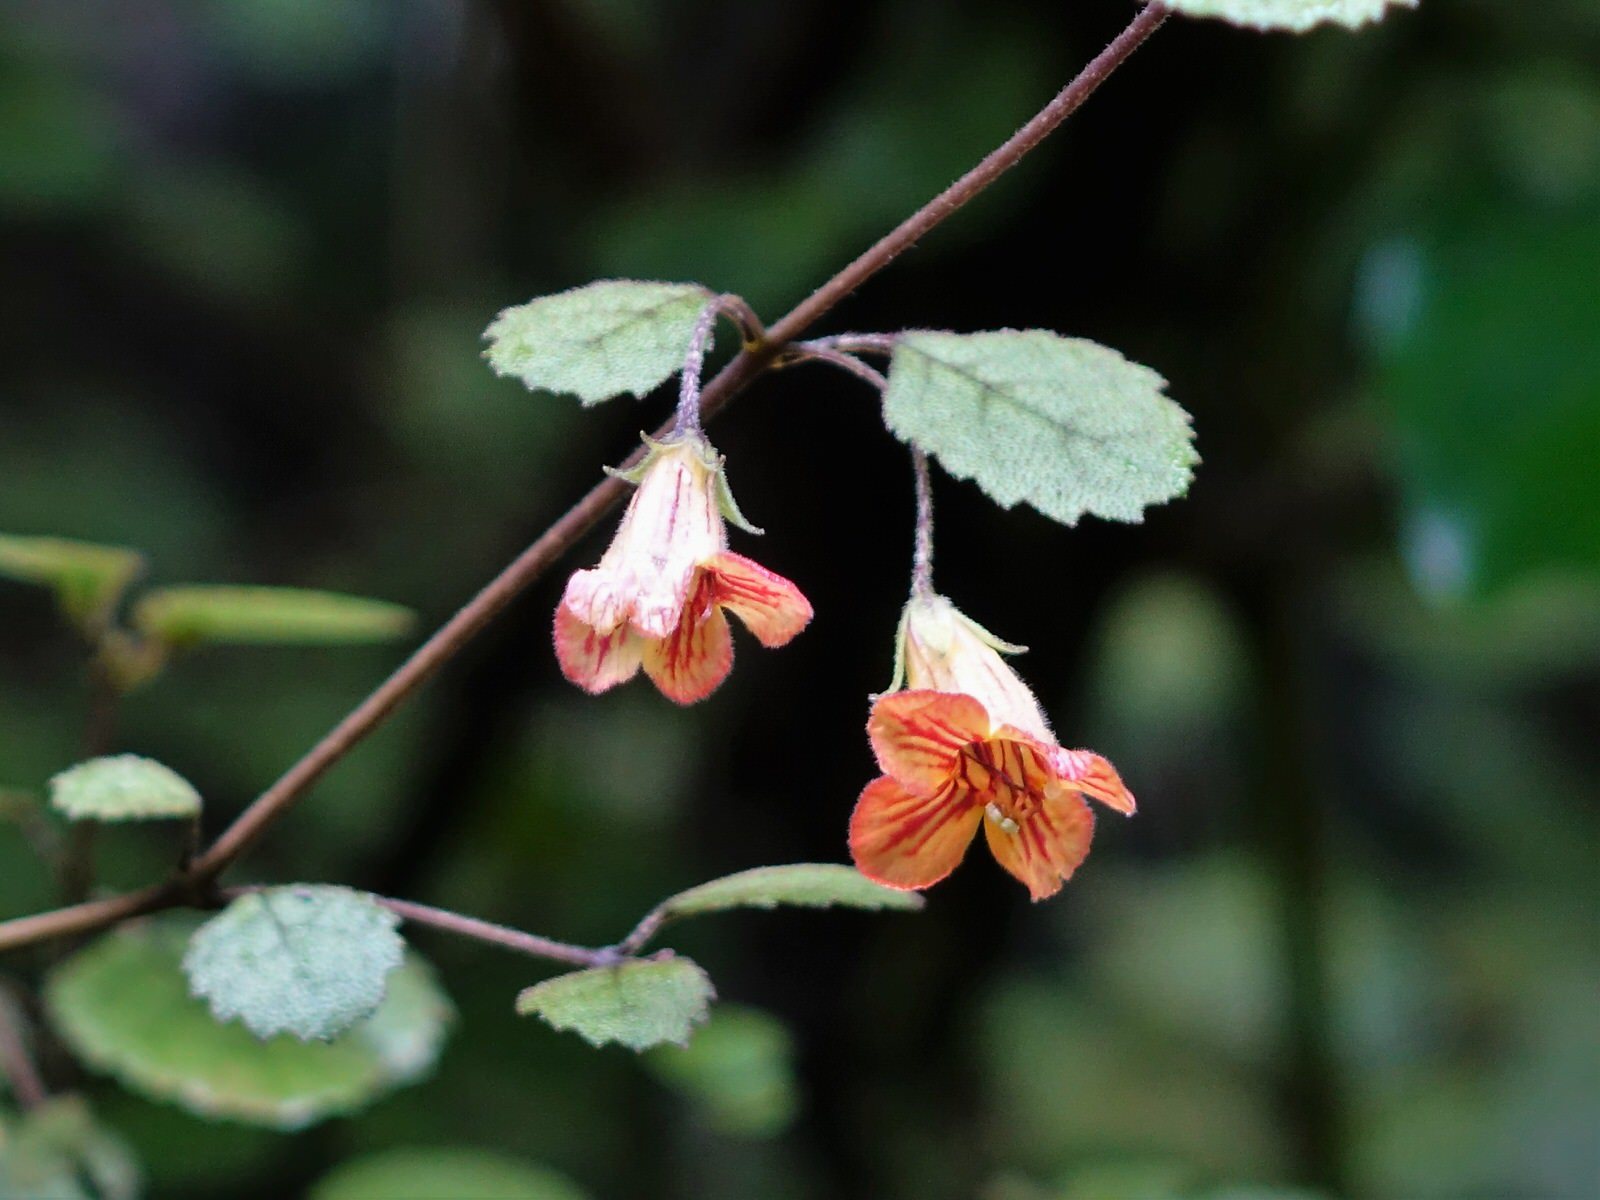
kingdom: Plantae
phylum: Tracheophyta
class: Magnoliopsida
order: Lamiales
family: Gesneriaceae
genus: Rhabdothamnus
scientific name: Rhabdothamnus solandri
